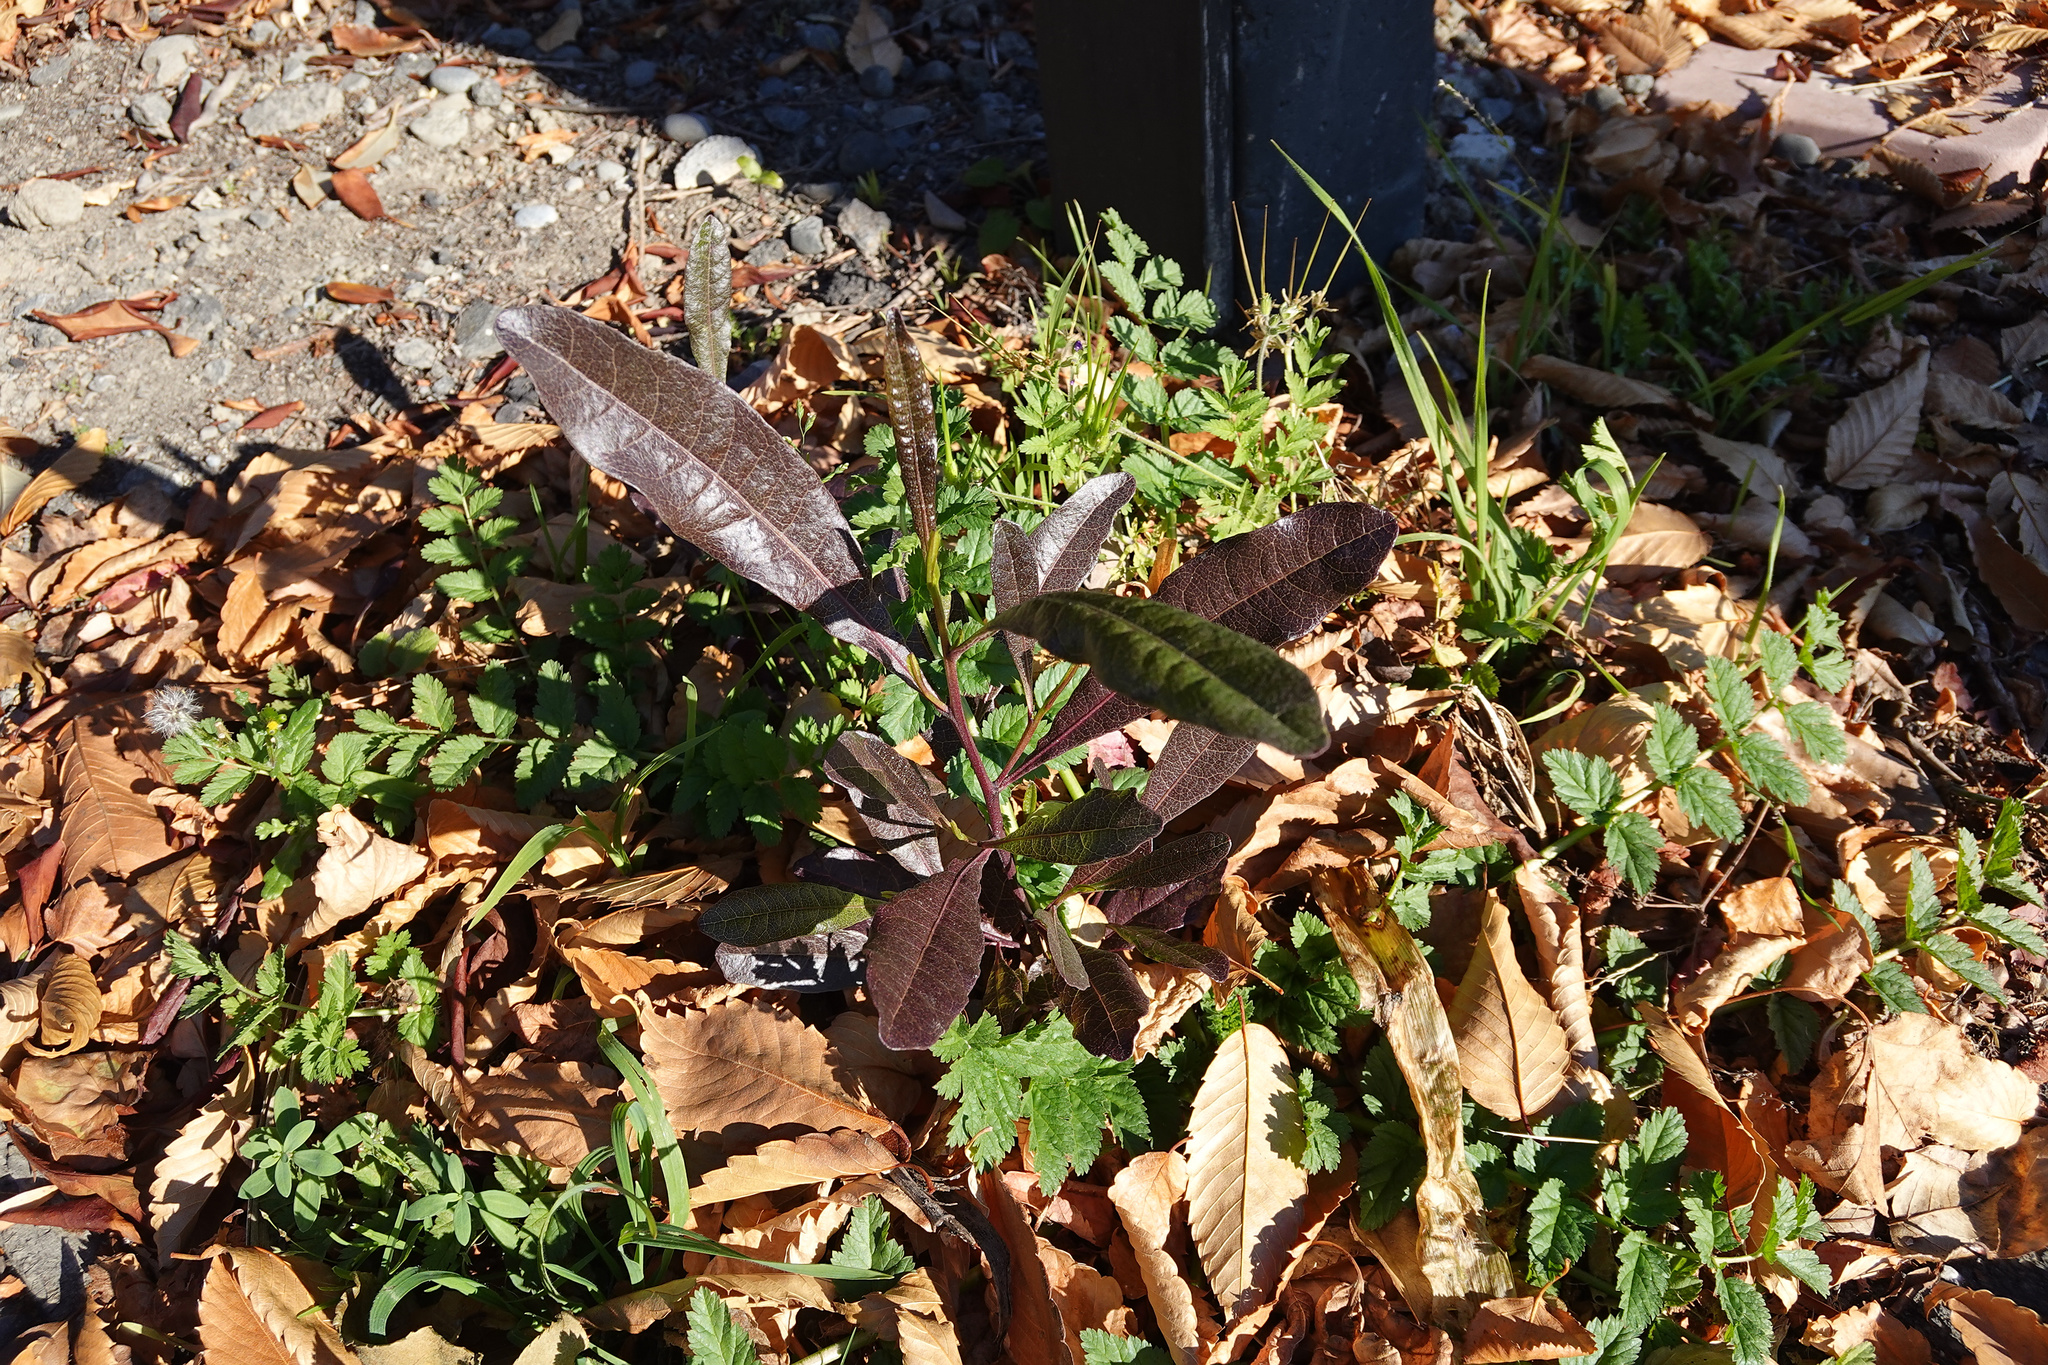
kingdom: Plantae
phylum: Tracheophyta
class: Magnoliopsida
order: Sapindales
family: Sapindaceae
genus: Dodonaea
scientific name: Dodonaea viscosa
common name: Hopbush
